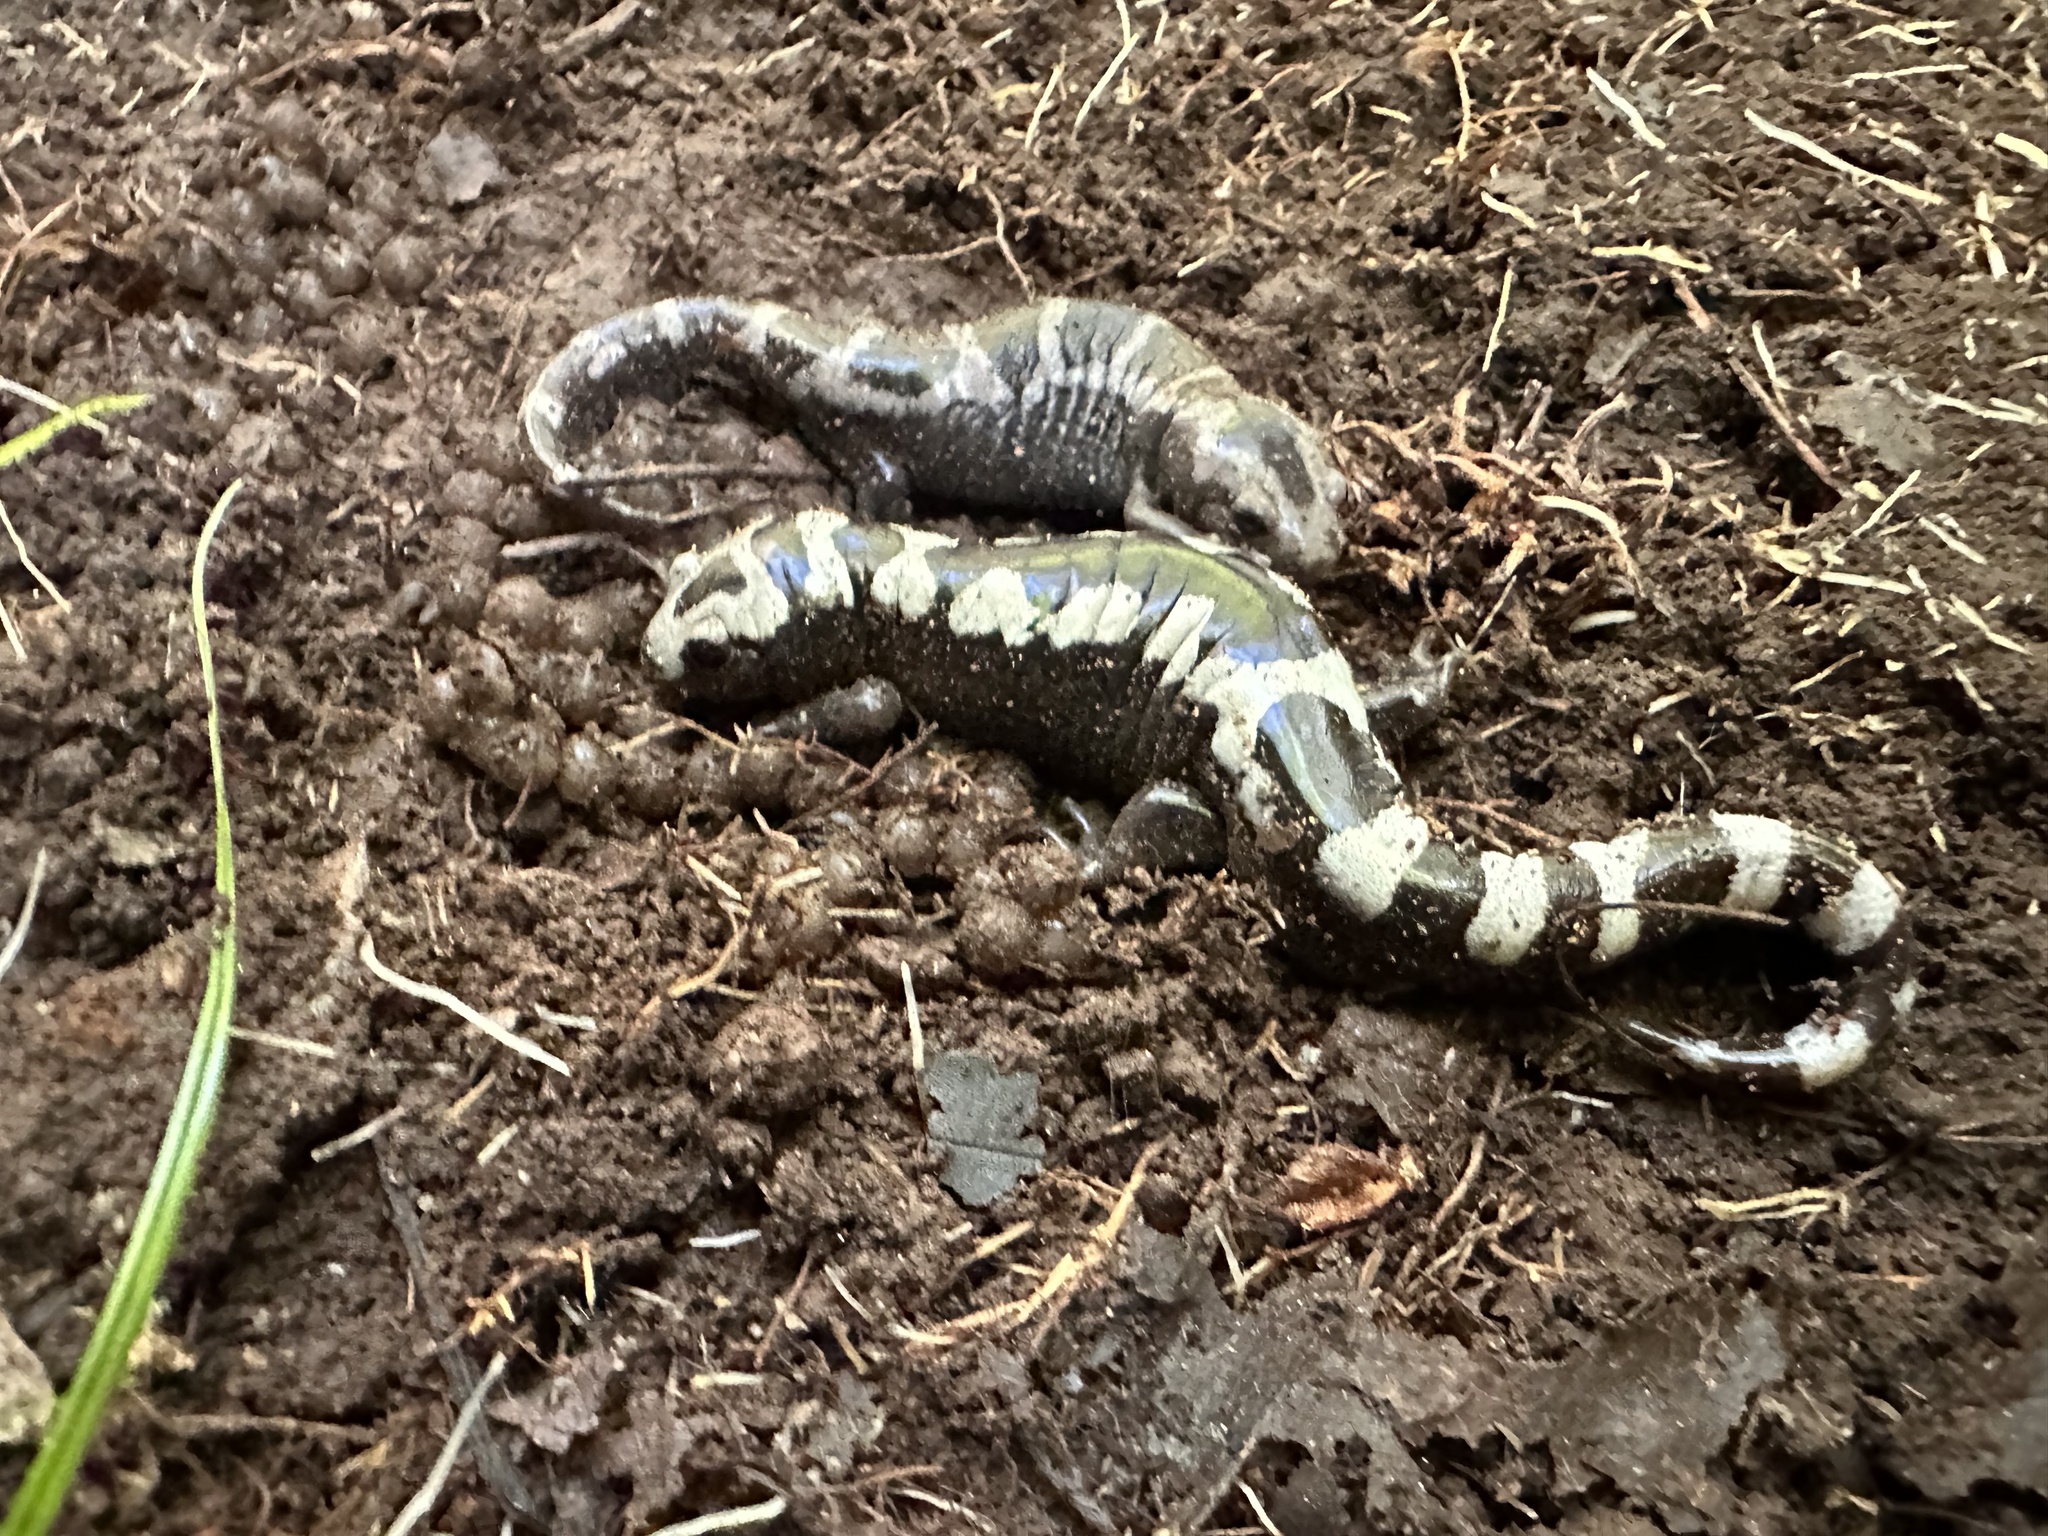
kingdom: Animalia
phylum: Chordata
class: Amphibia
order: Caudata
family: Ambystomatidae
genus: Ambystoma
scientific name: Ambystoma opacum
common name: Marbled salamander
